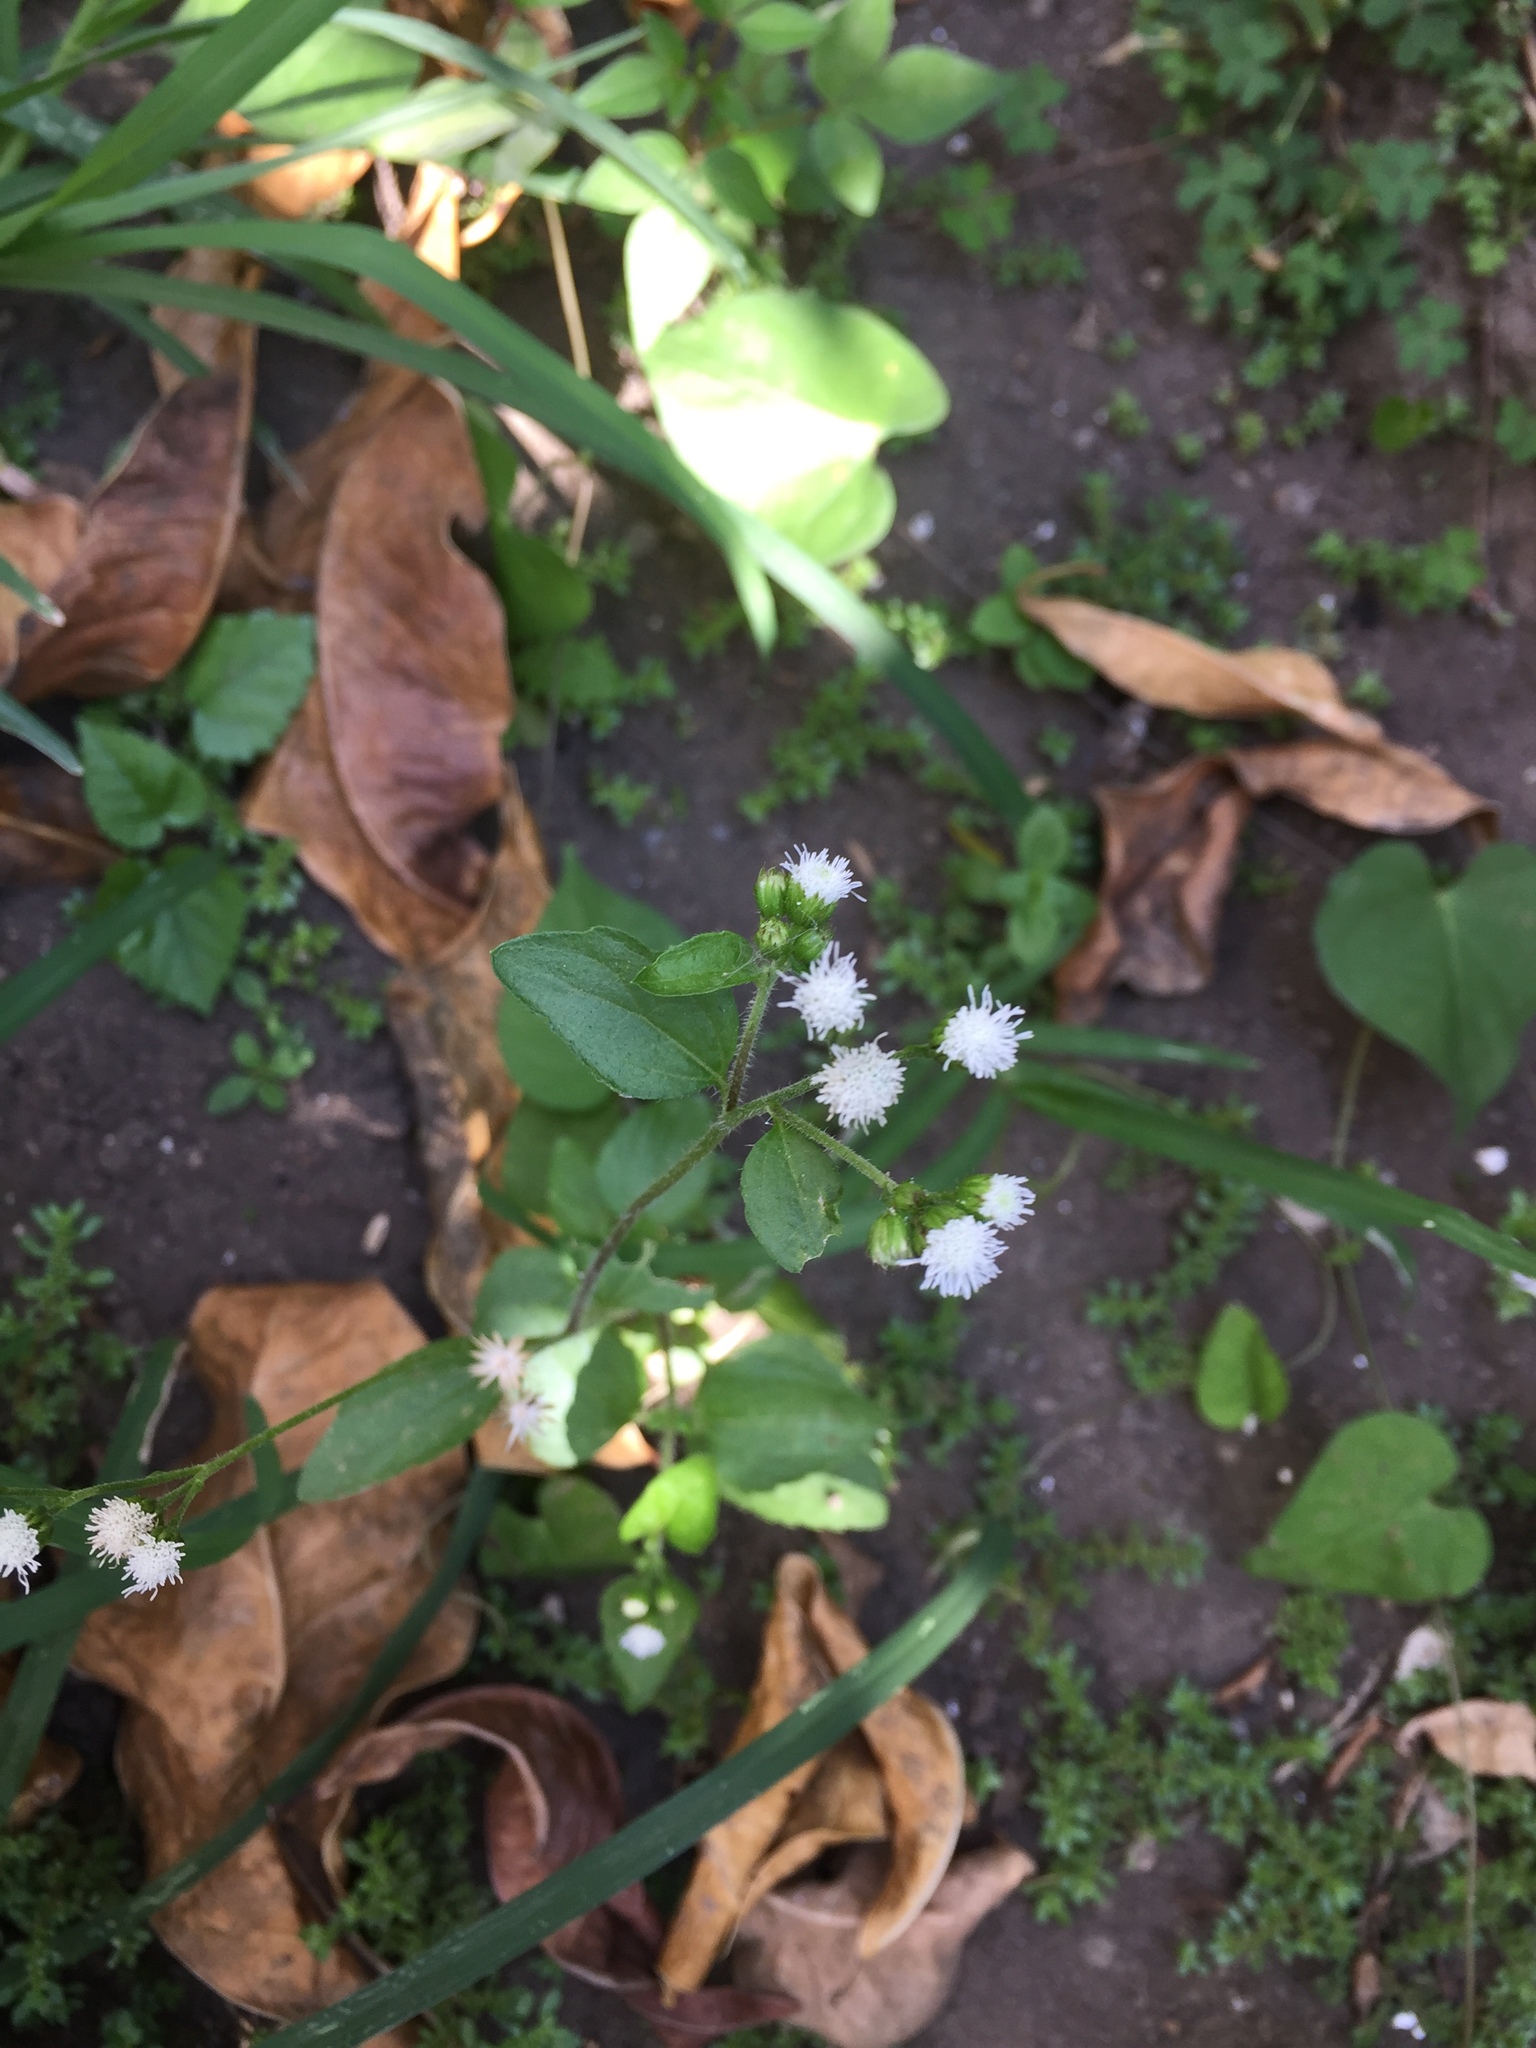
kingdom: Plantae
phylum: Tracheophyta
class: Magnoliopsida
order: Asterales
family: Asteraceae
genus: Ageratum
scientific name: Ageratum conyzoides
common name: Tropical whiteweed
